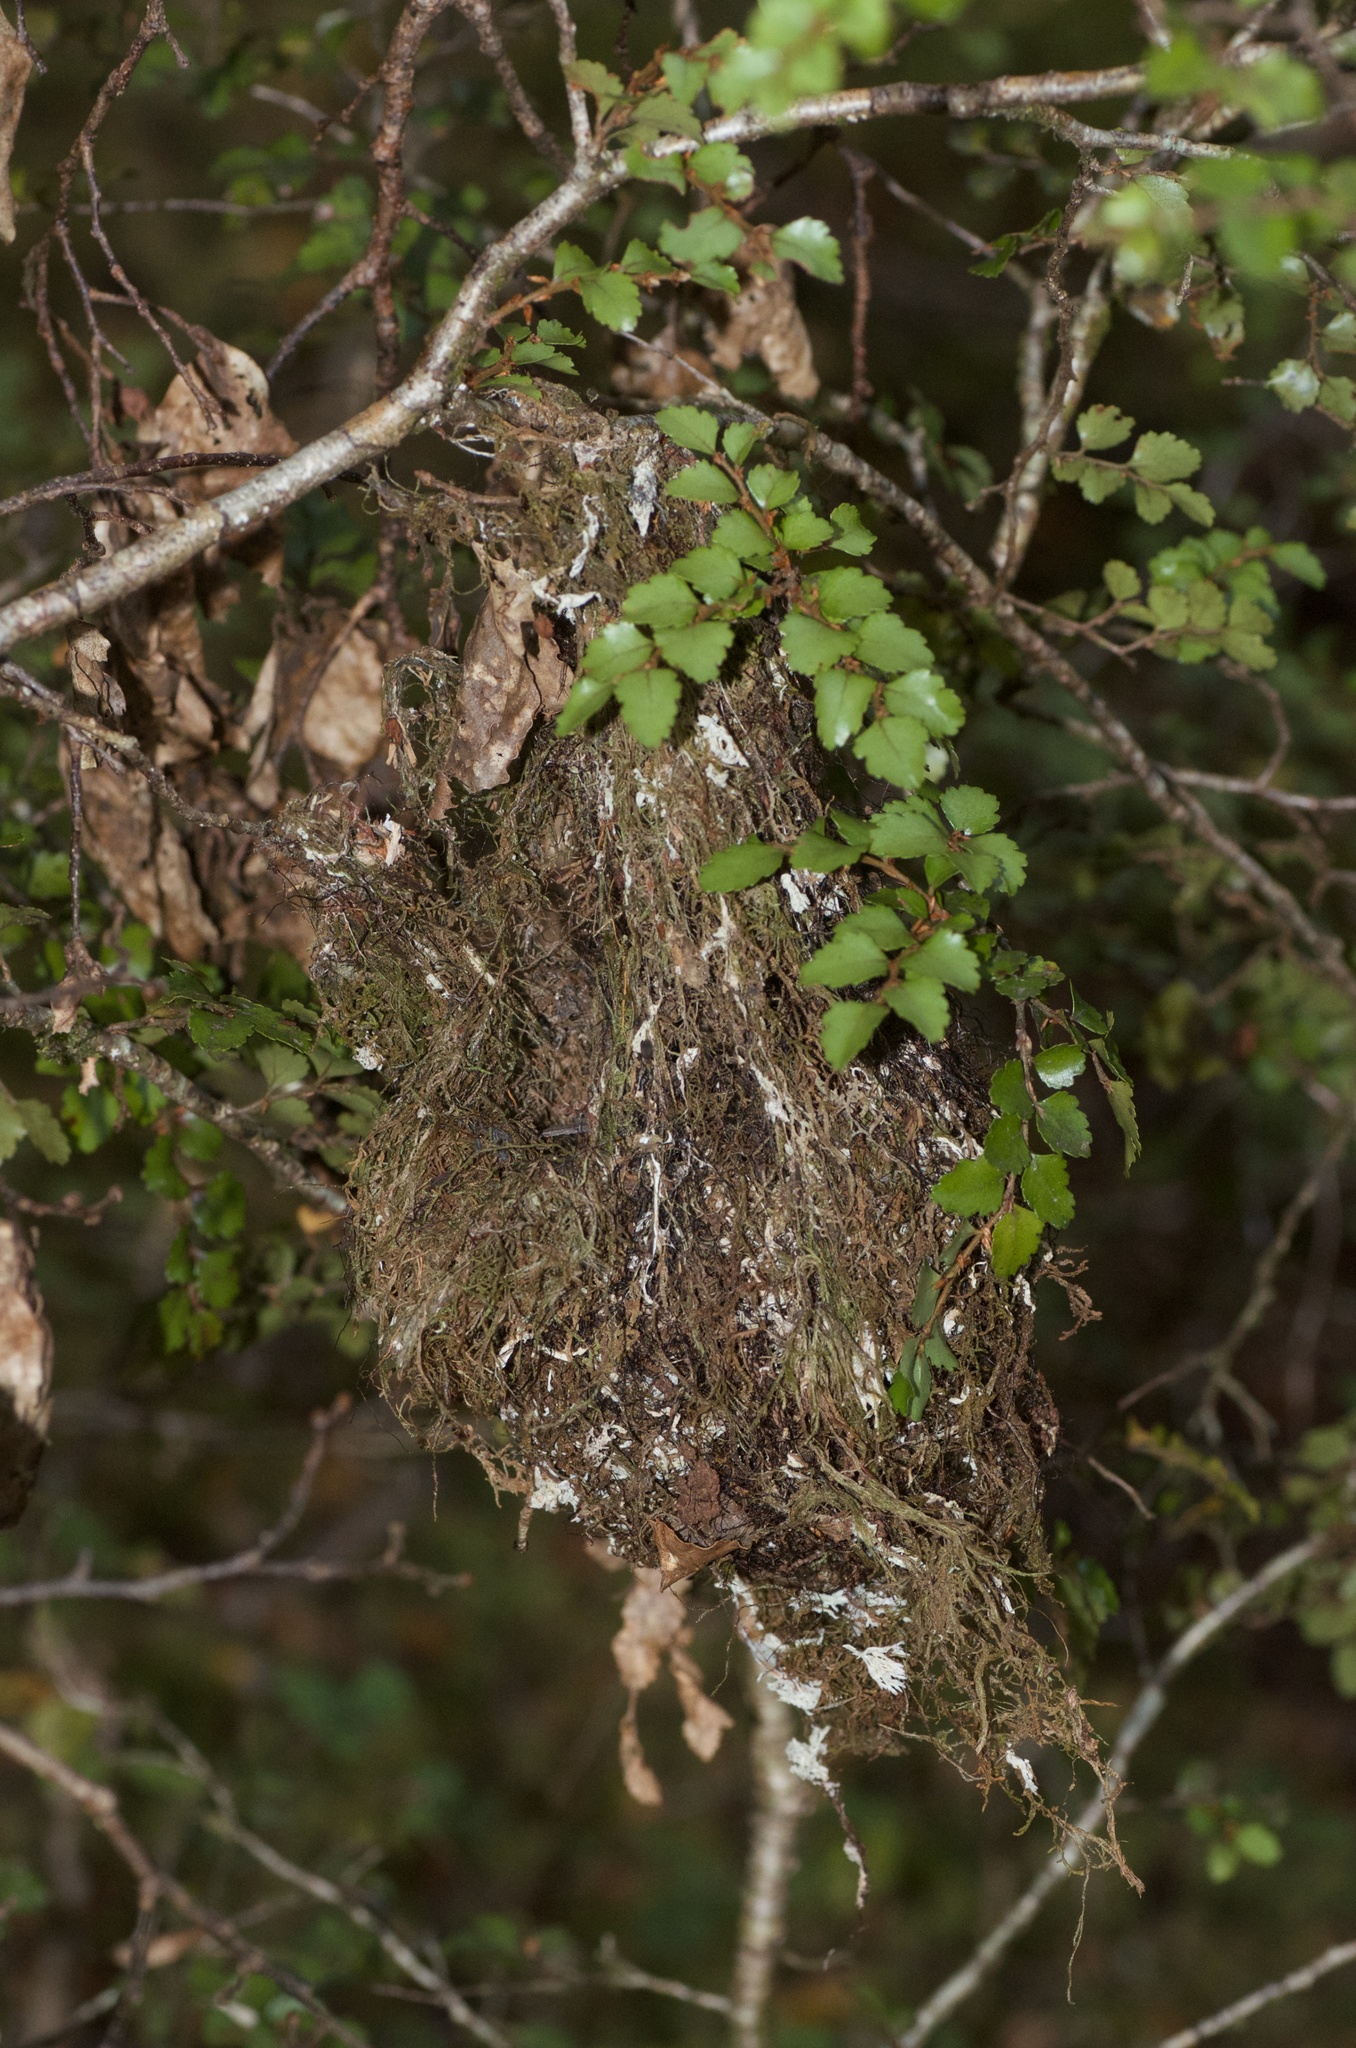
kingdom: Animalia
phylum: Chordata
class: Aves
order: Passeriformes
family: Acanthizidae
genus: Gerygone
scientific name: Gerygone igata
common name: Grey gerygone
